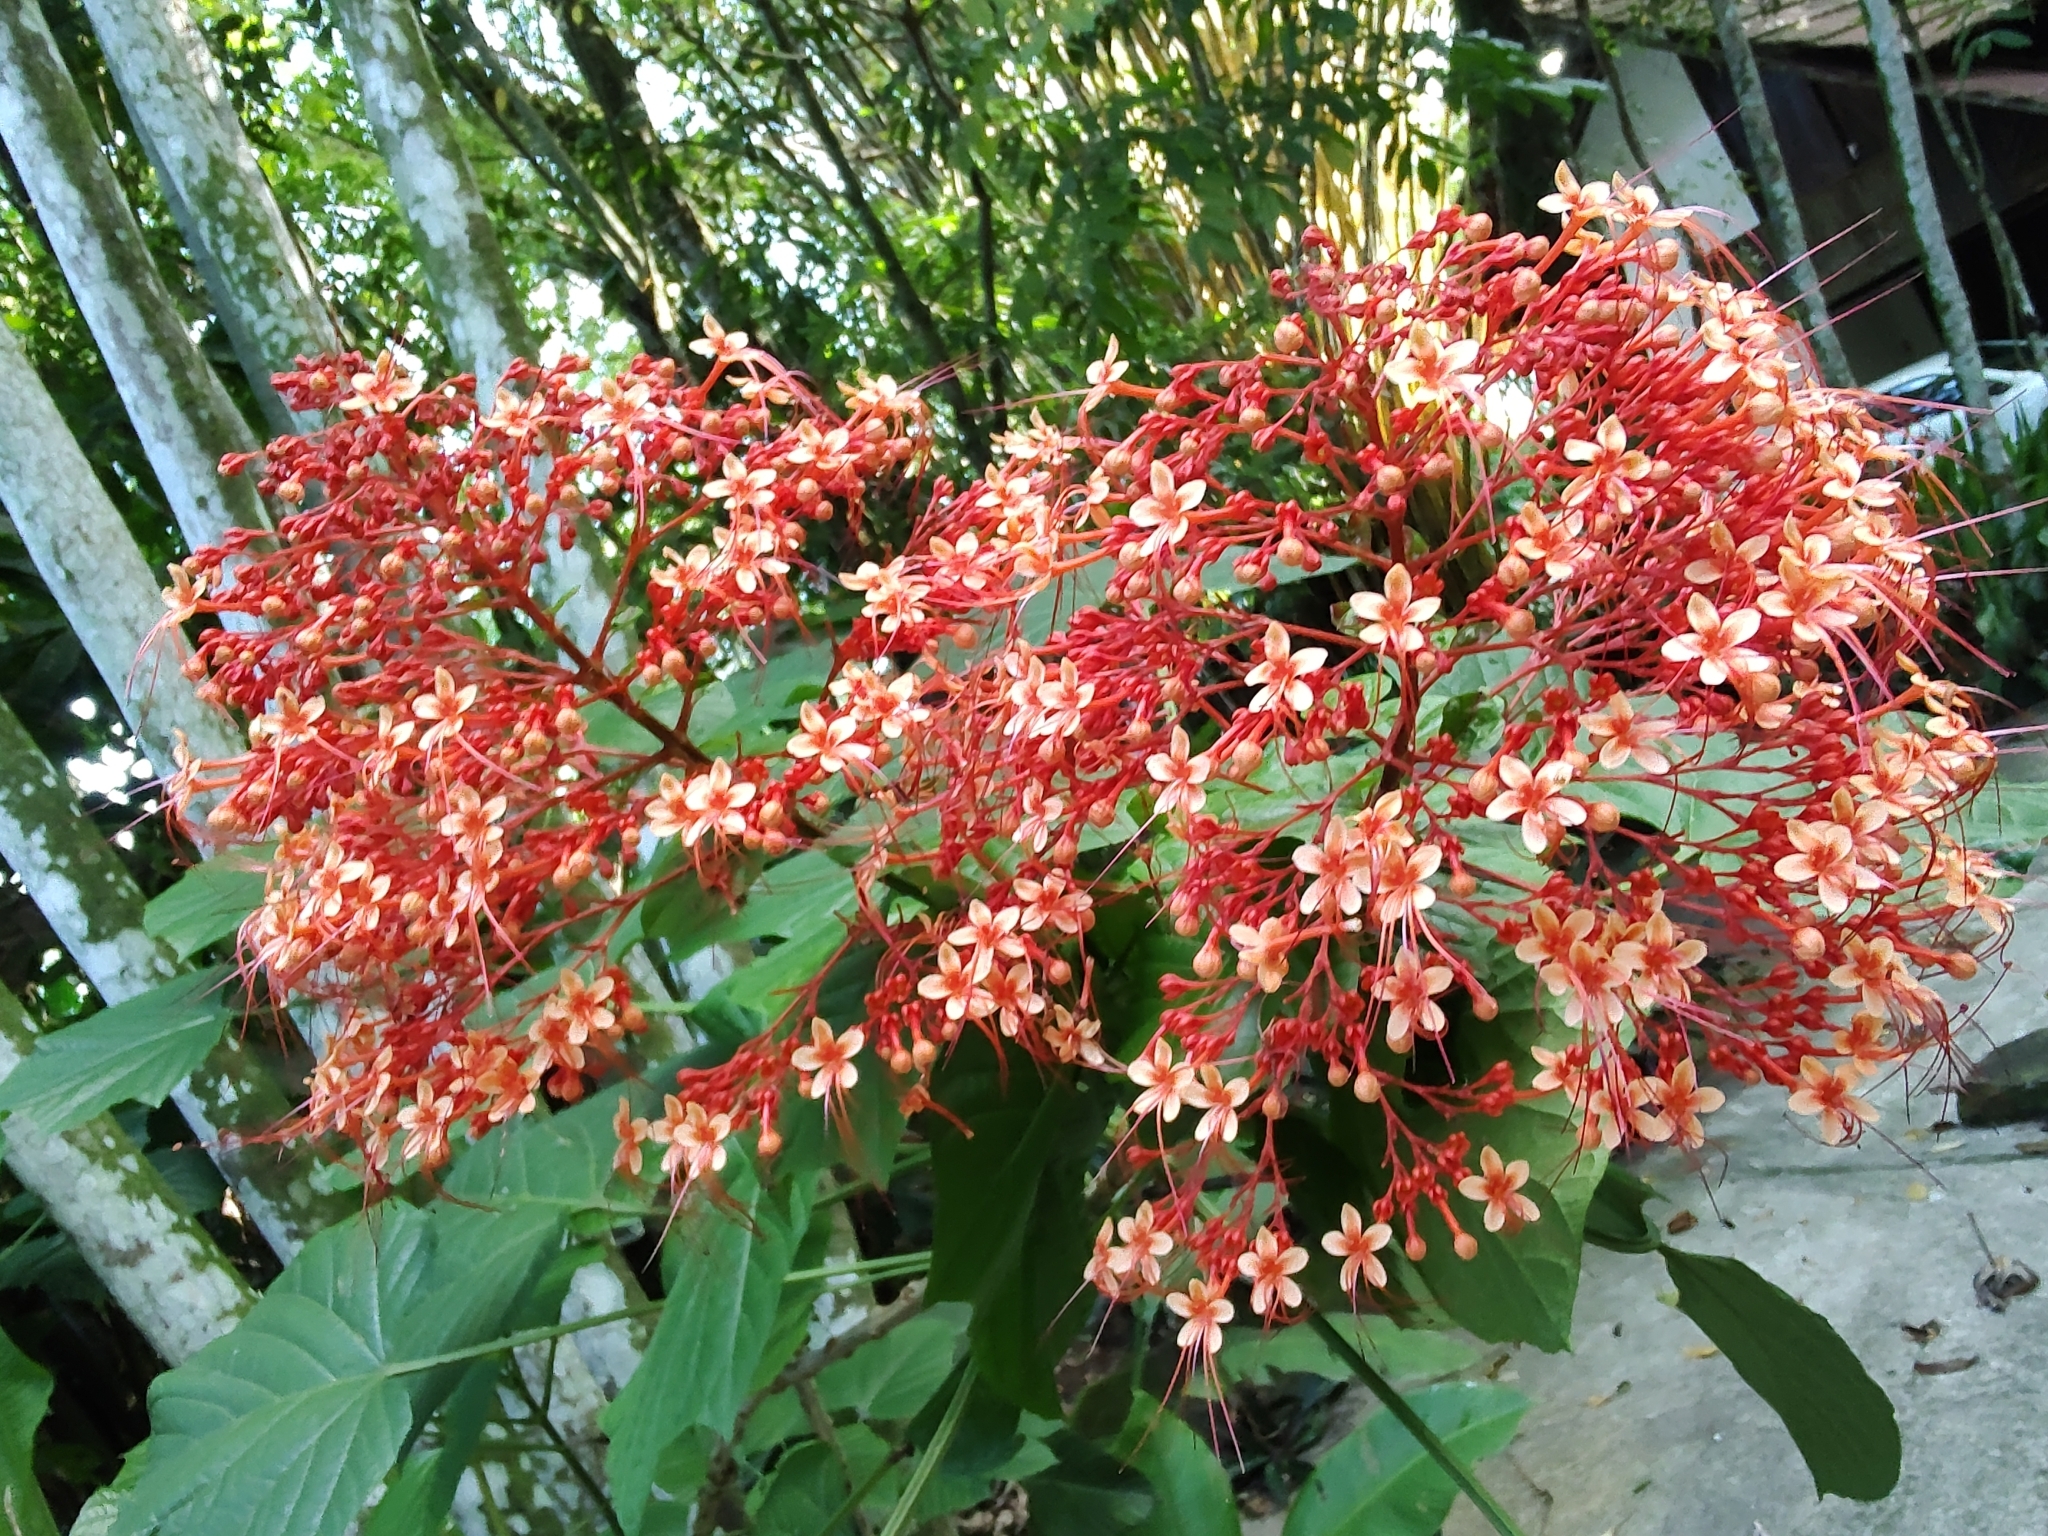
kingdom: Plantae
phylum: Tracheophyta
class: Magnoliopsida
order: Lamiales
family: Lamiaceae
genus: Clerodendrum
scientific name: Clerodendrum paniculatum
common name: Pagoda-flower
